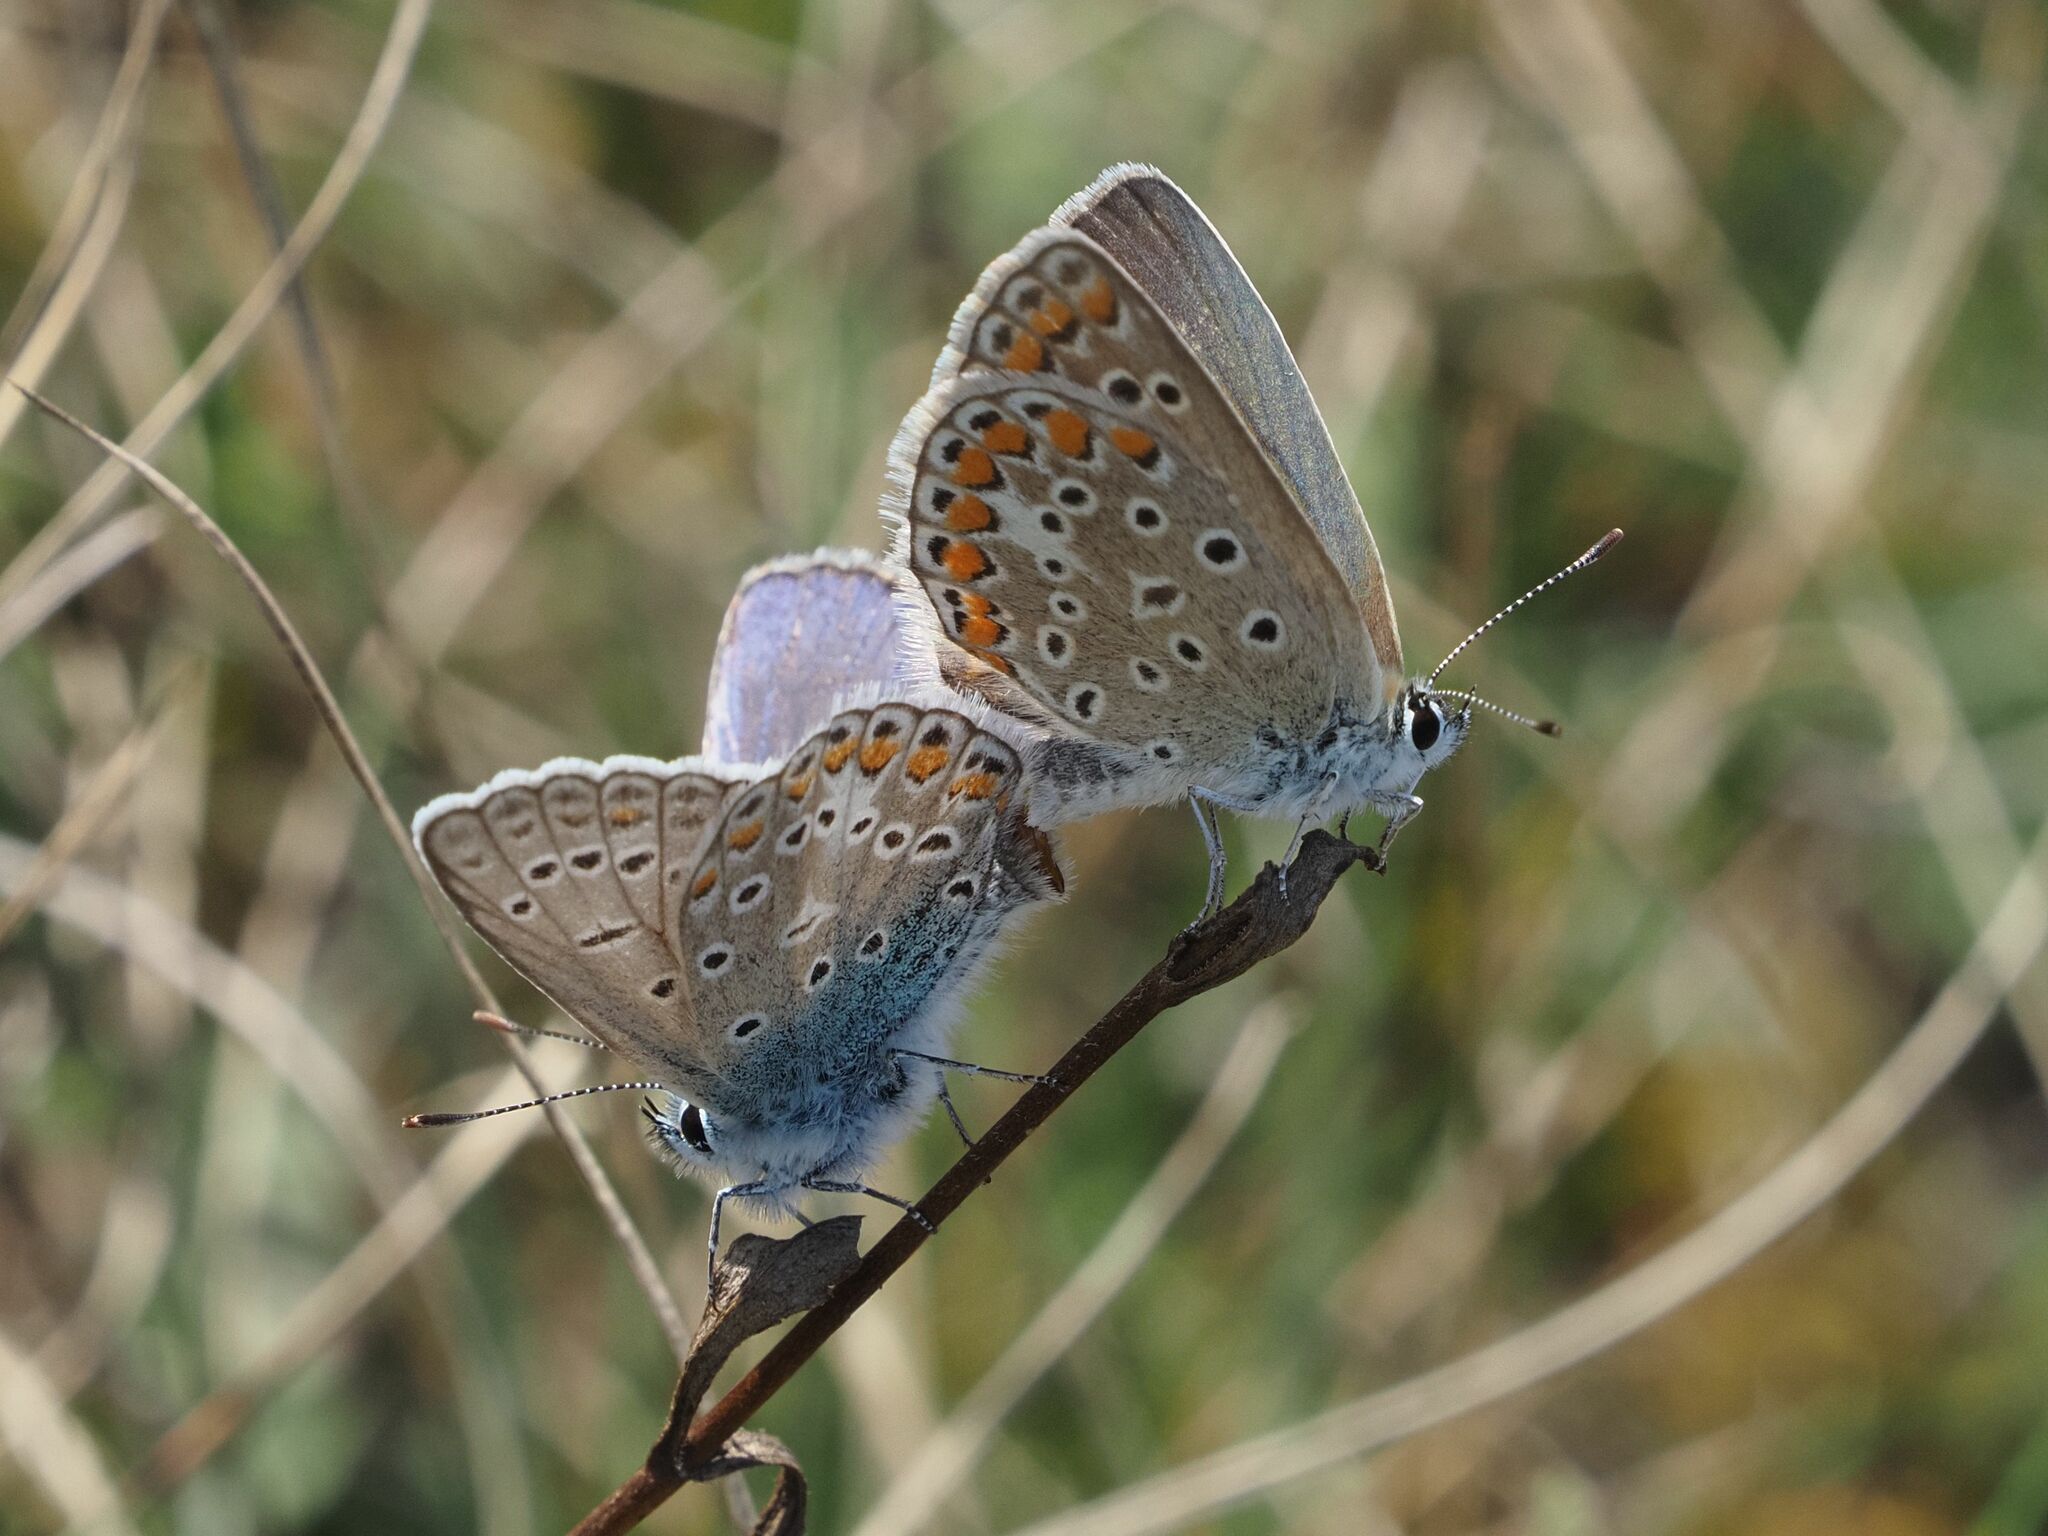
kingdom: Animalia
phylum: Arthropoda
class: Insecta
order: Lepidoptera
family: Lycaenidae
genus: Polyommatus
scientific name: Polyommatus icarus
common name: Common blue
